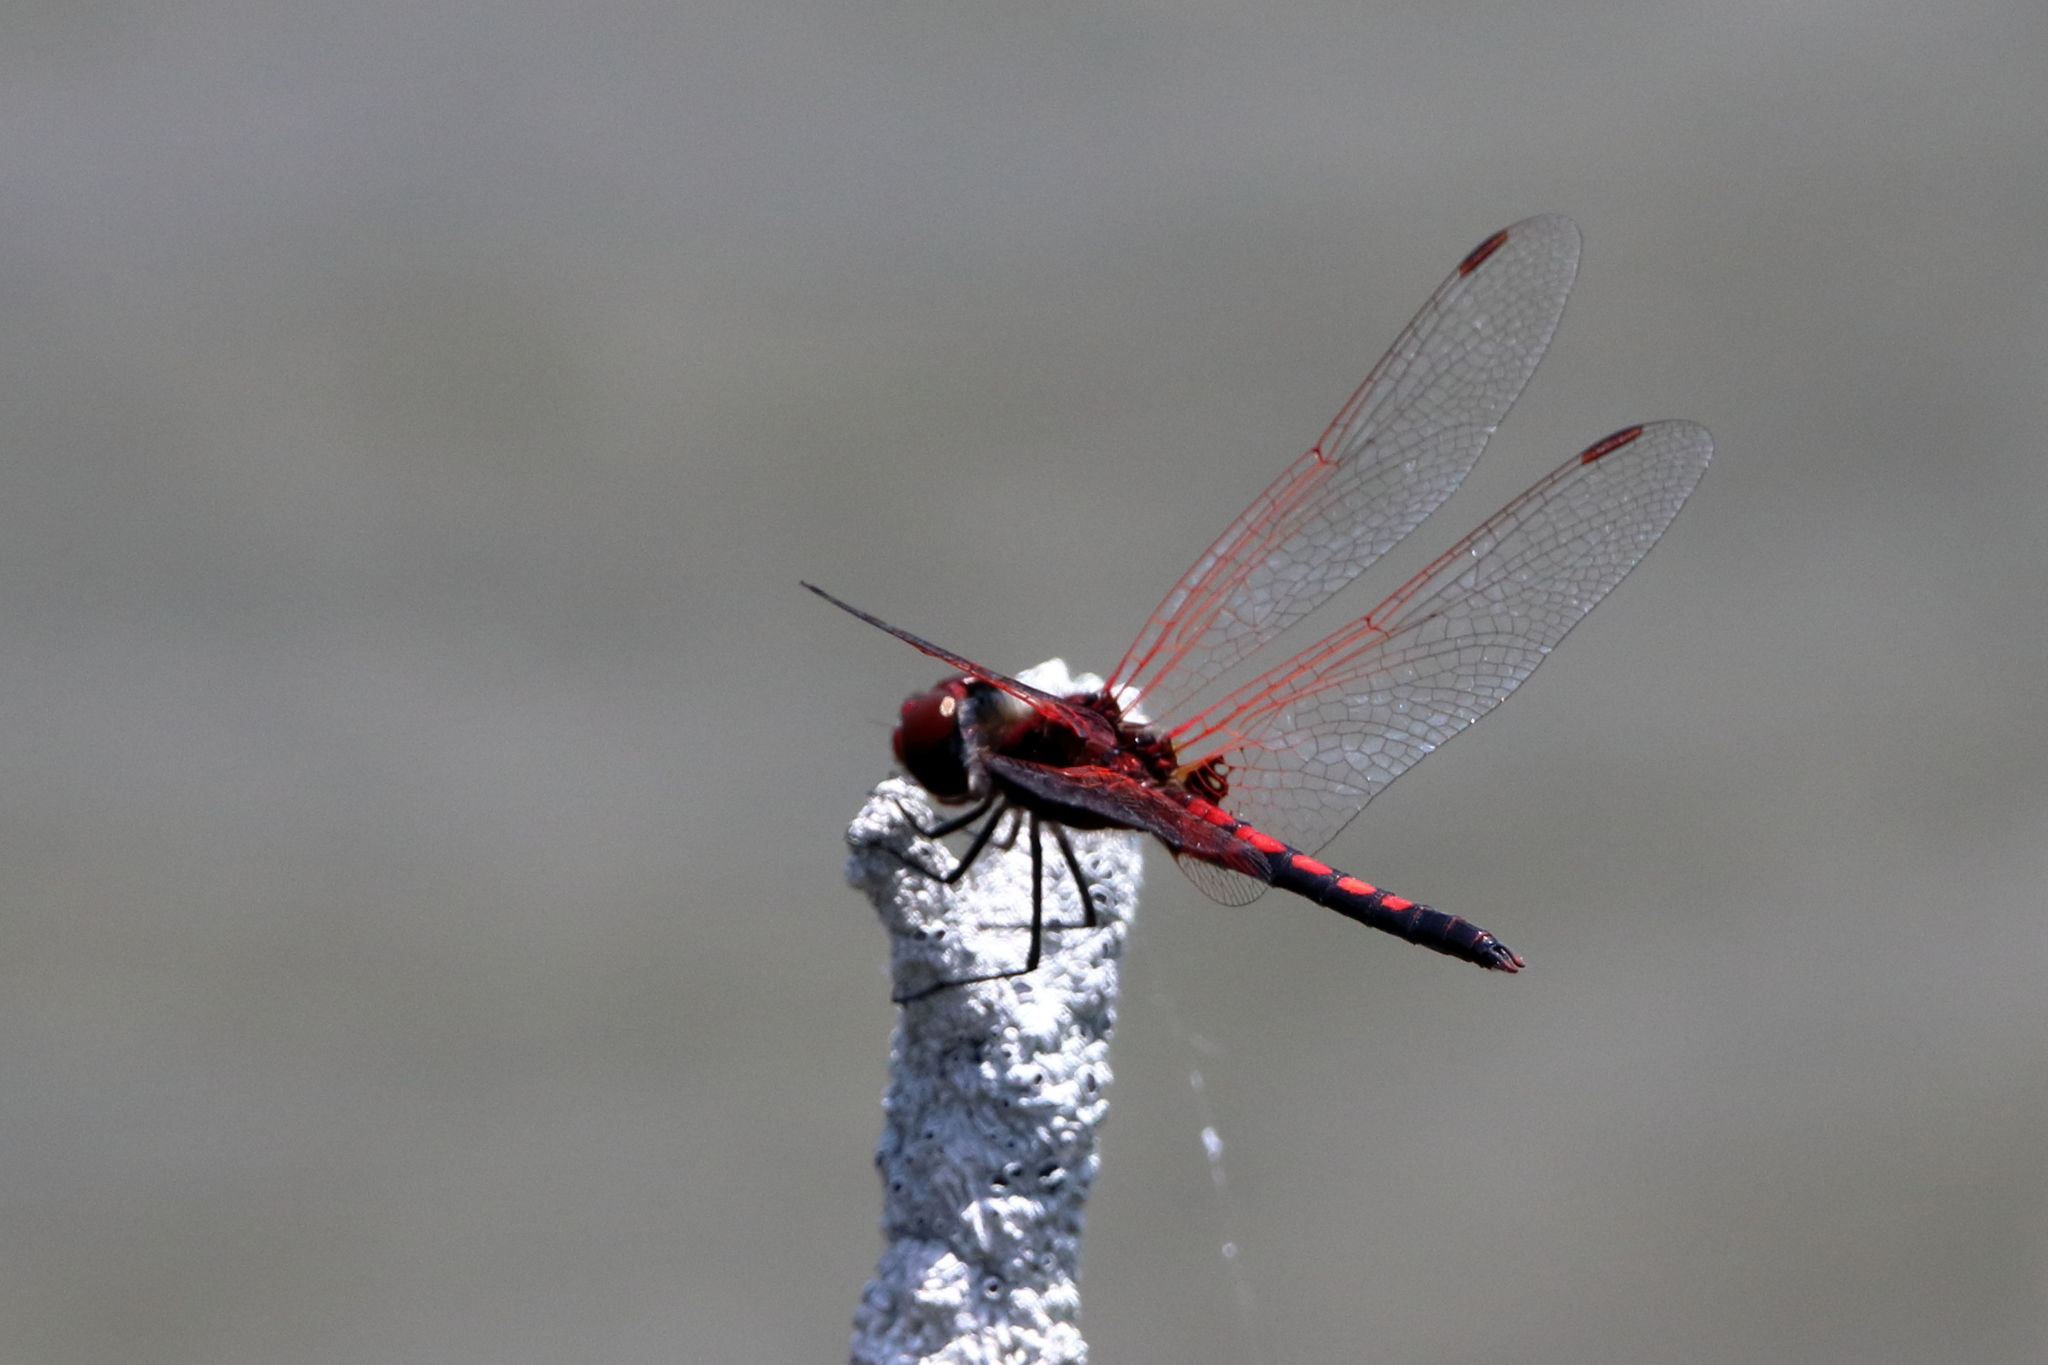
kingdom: Animalia
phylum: Arthropoda
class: Insecta
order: Odonata
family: Libellulidae
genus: Celithemis
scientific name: Celithemis bertha
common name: Red-veined pennant
